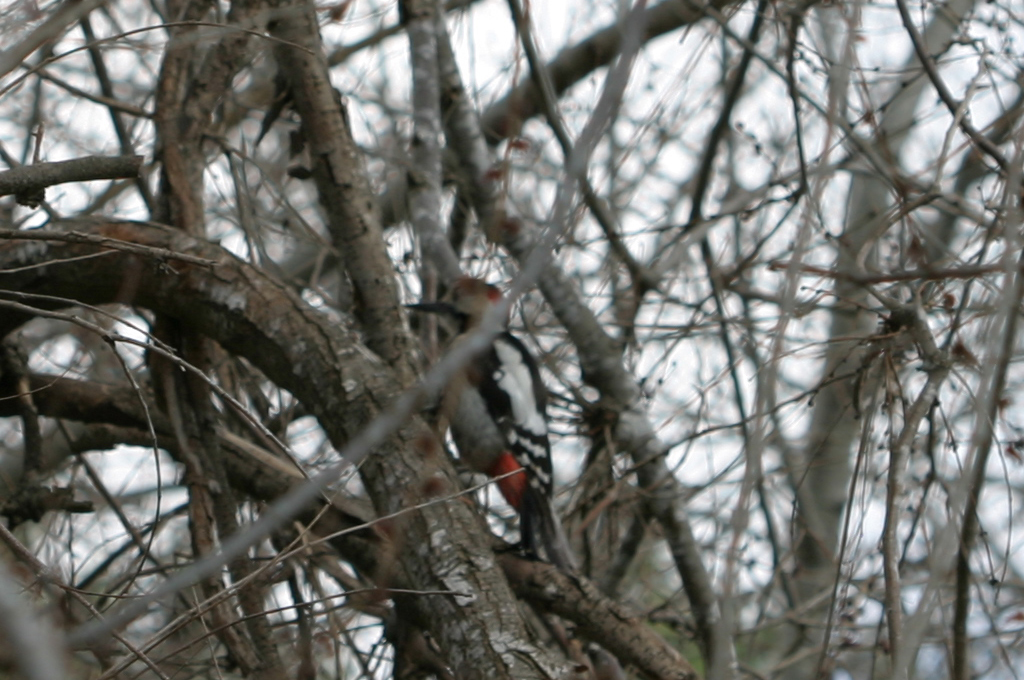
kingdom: Animalia
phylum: Chordata
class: Aves
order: Piciformes
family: Picidae
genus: Dendrocopos
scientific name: Dendrocopos syriacus
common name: Syrian woodpecker
